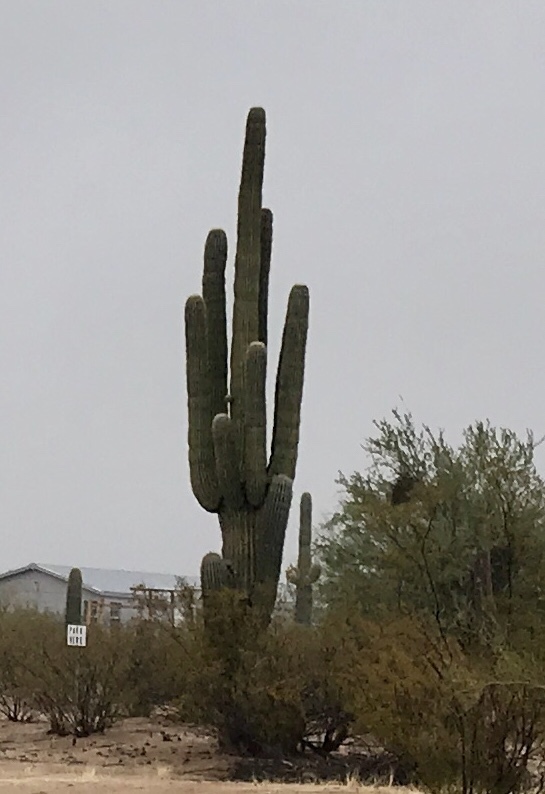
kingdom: Plantae
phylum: Tracheophyta
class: Magnoliopsida
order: Caryophyllales
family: Cactaceae
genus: Carnegiea
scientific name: Carnegiea gigantea
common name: Saguaro
